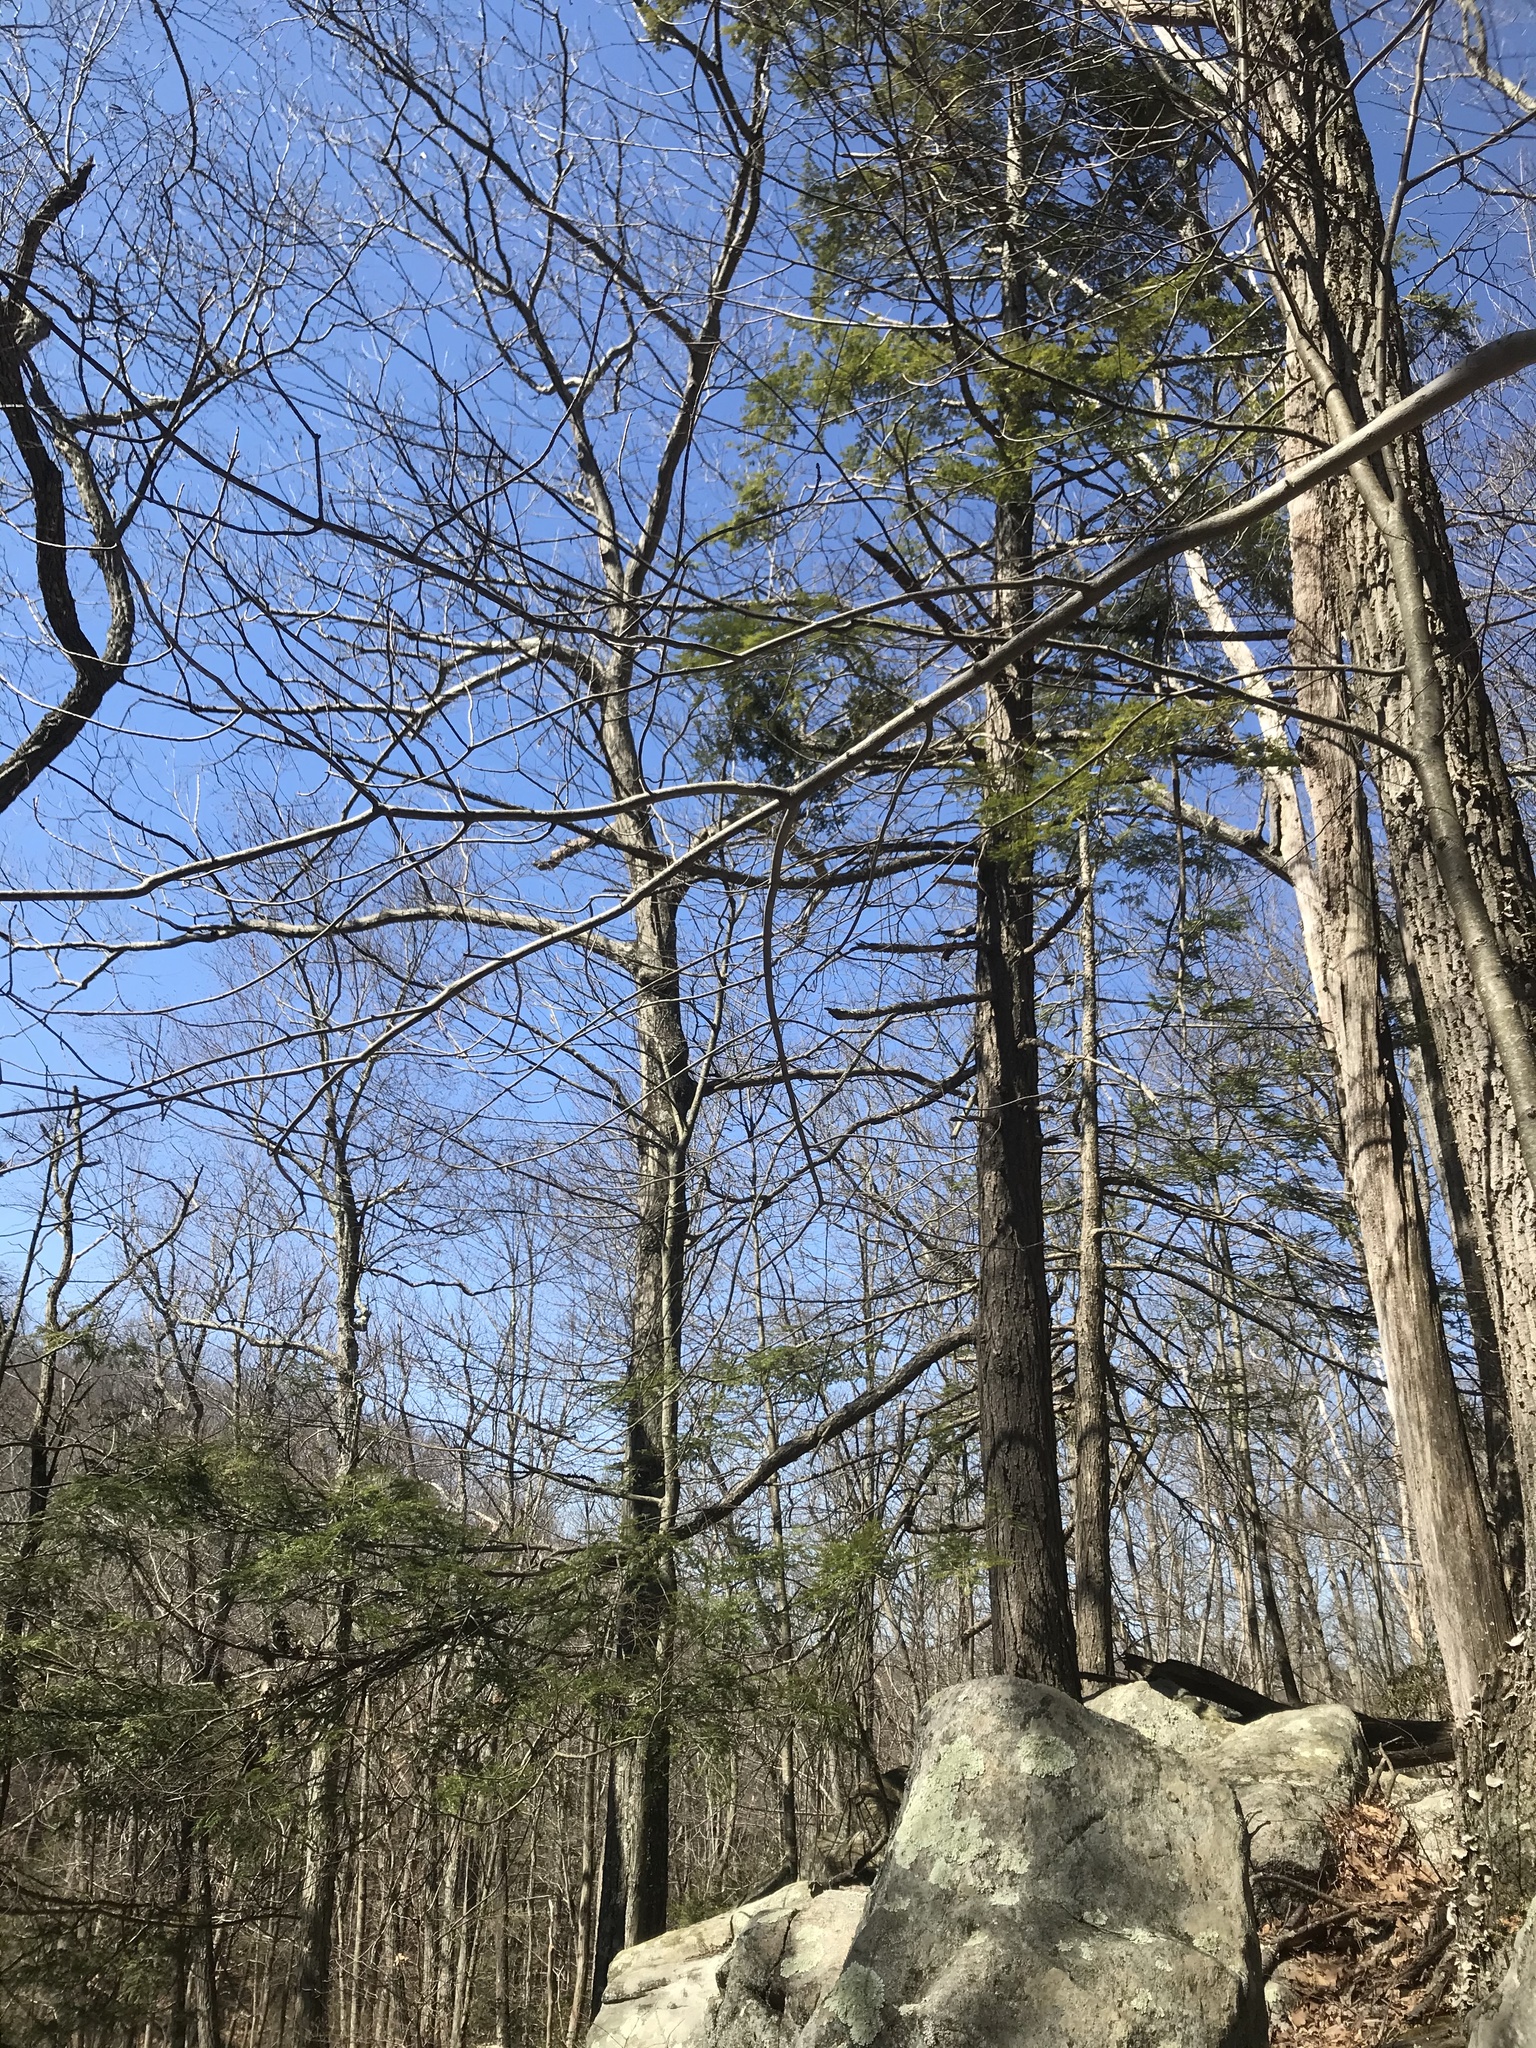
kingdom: Plantae
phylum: Tracheophyta
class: Pinopsida
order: Pinales
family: Pinaceae
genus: Tsuga
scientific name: Tsuga canadensis
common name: Eastern hemlock
